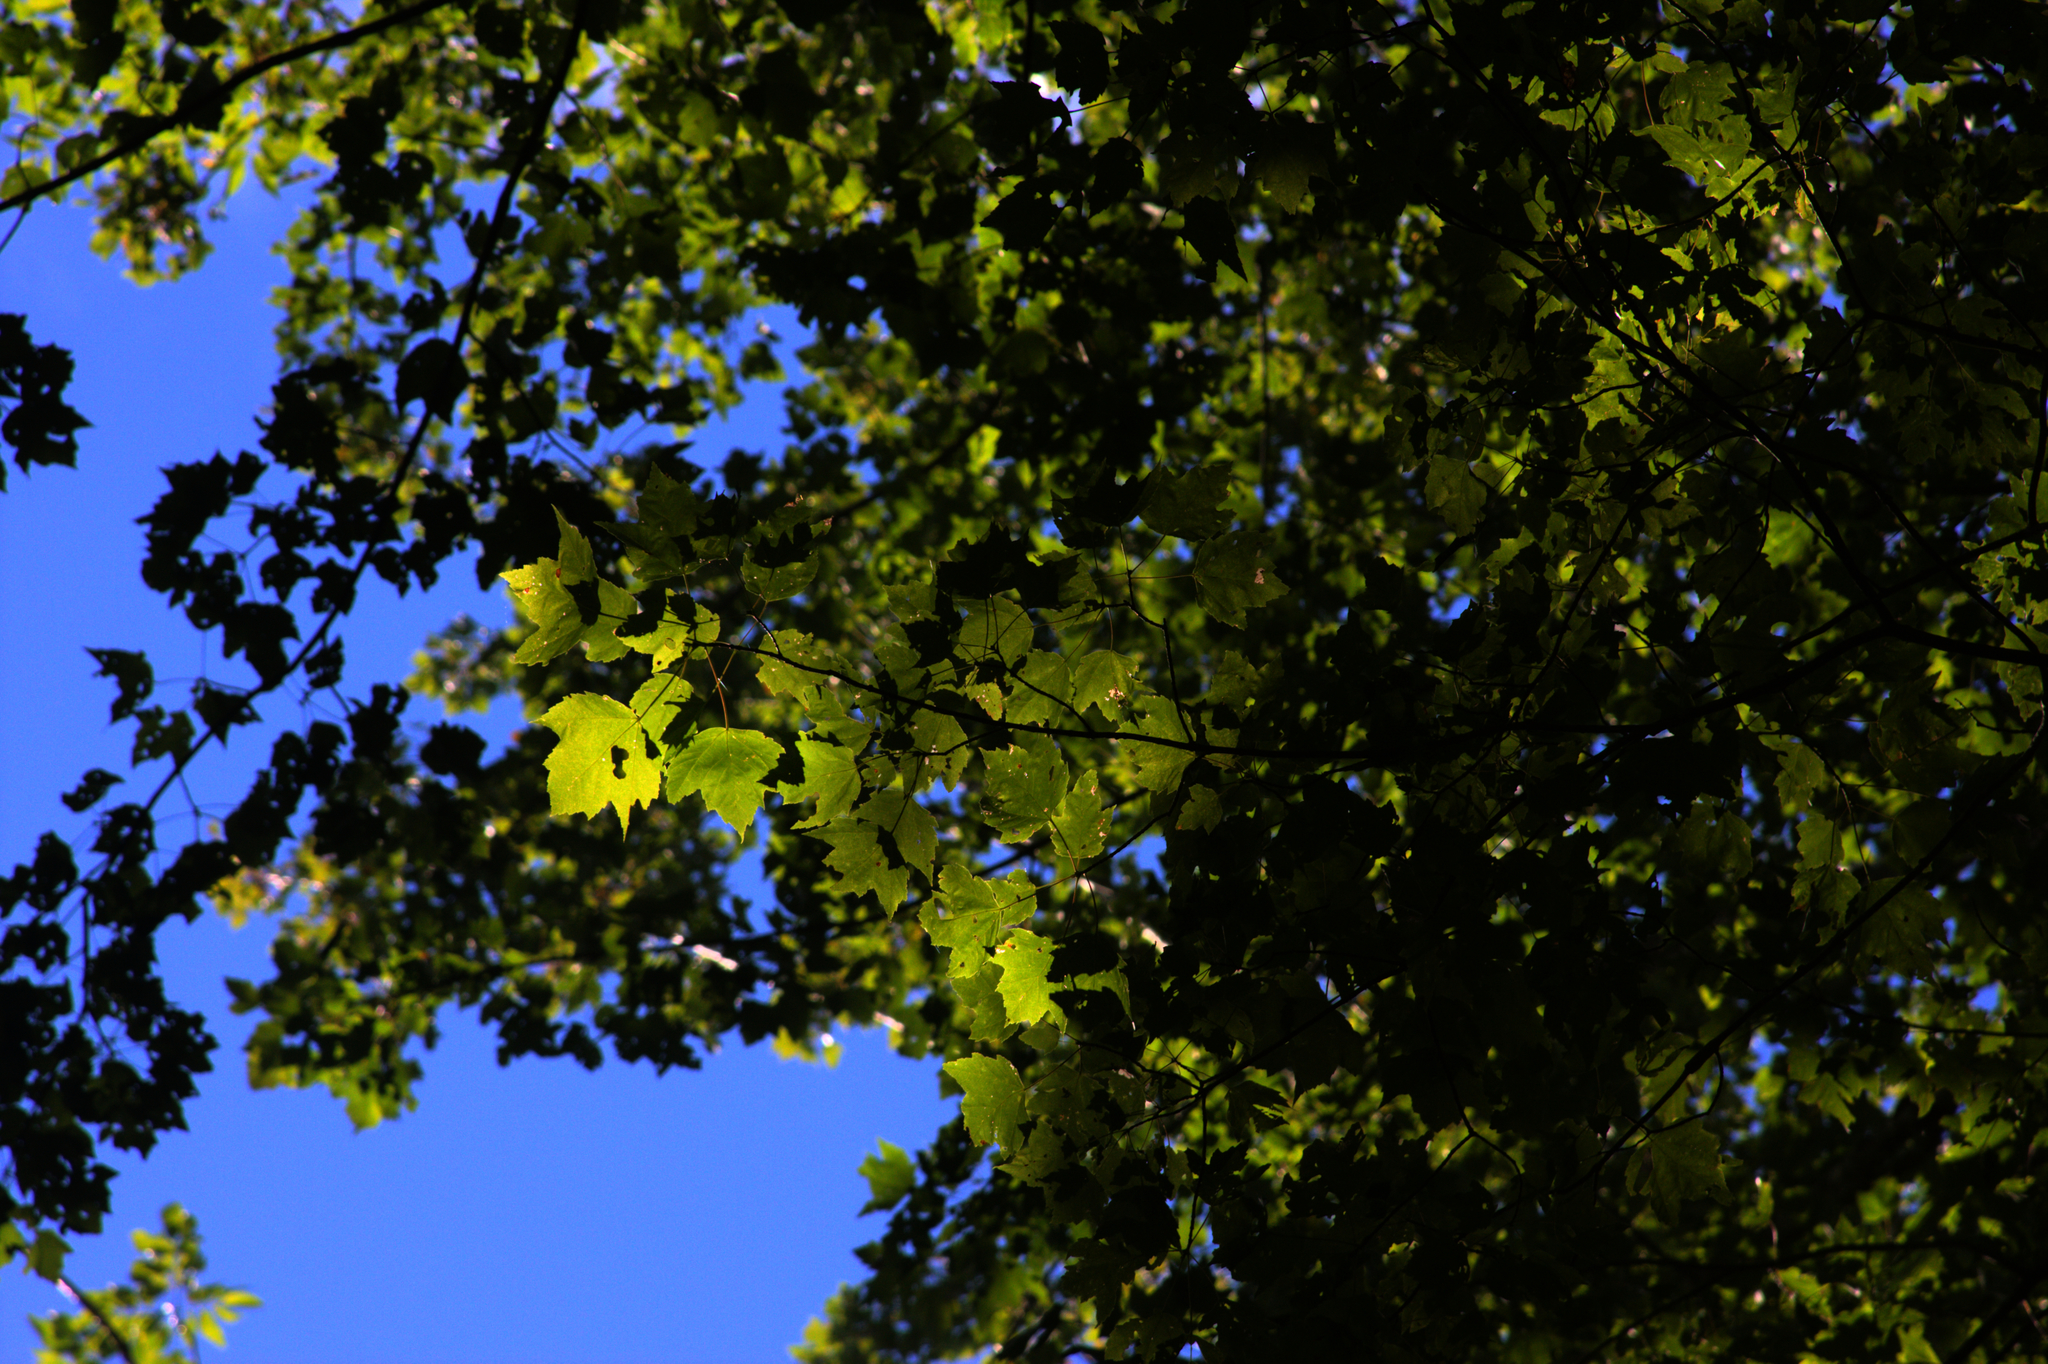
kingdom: Plantae
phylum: Tracheophyta
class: Magnoliopsida
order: Sapindales
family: Sapindaceae
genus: Acer
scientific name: Acer rubrum
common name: Red maple
